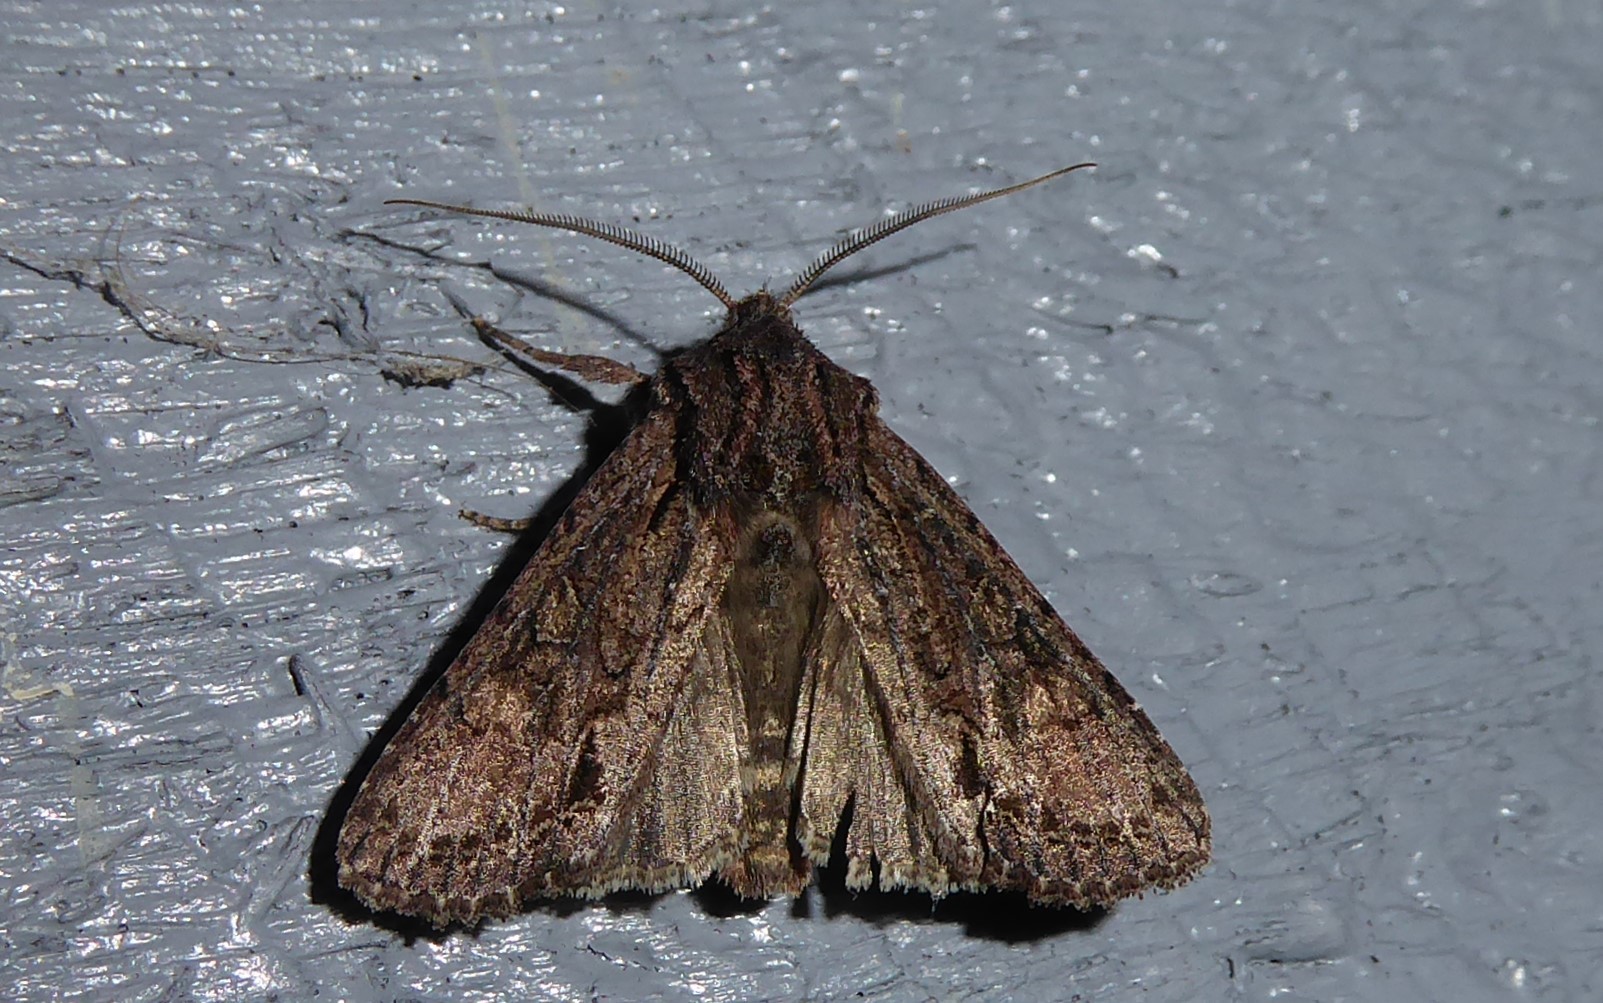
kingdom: Animalia
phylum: Arthropoda
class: Insecta
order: Lepidoptera
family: Noctuidae
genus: Ichneutica
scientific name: Ichneutica mutans
